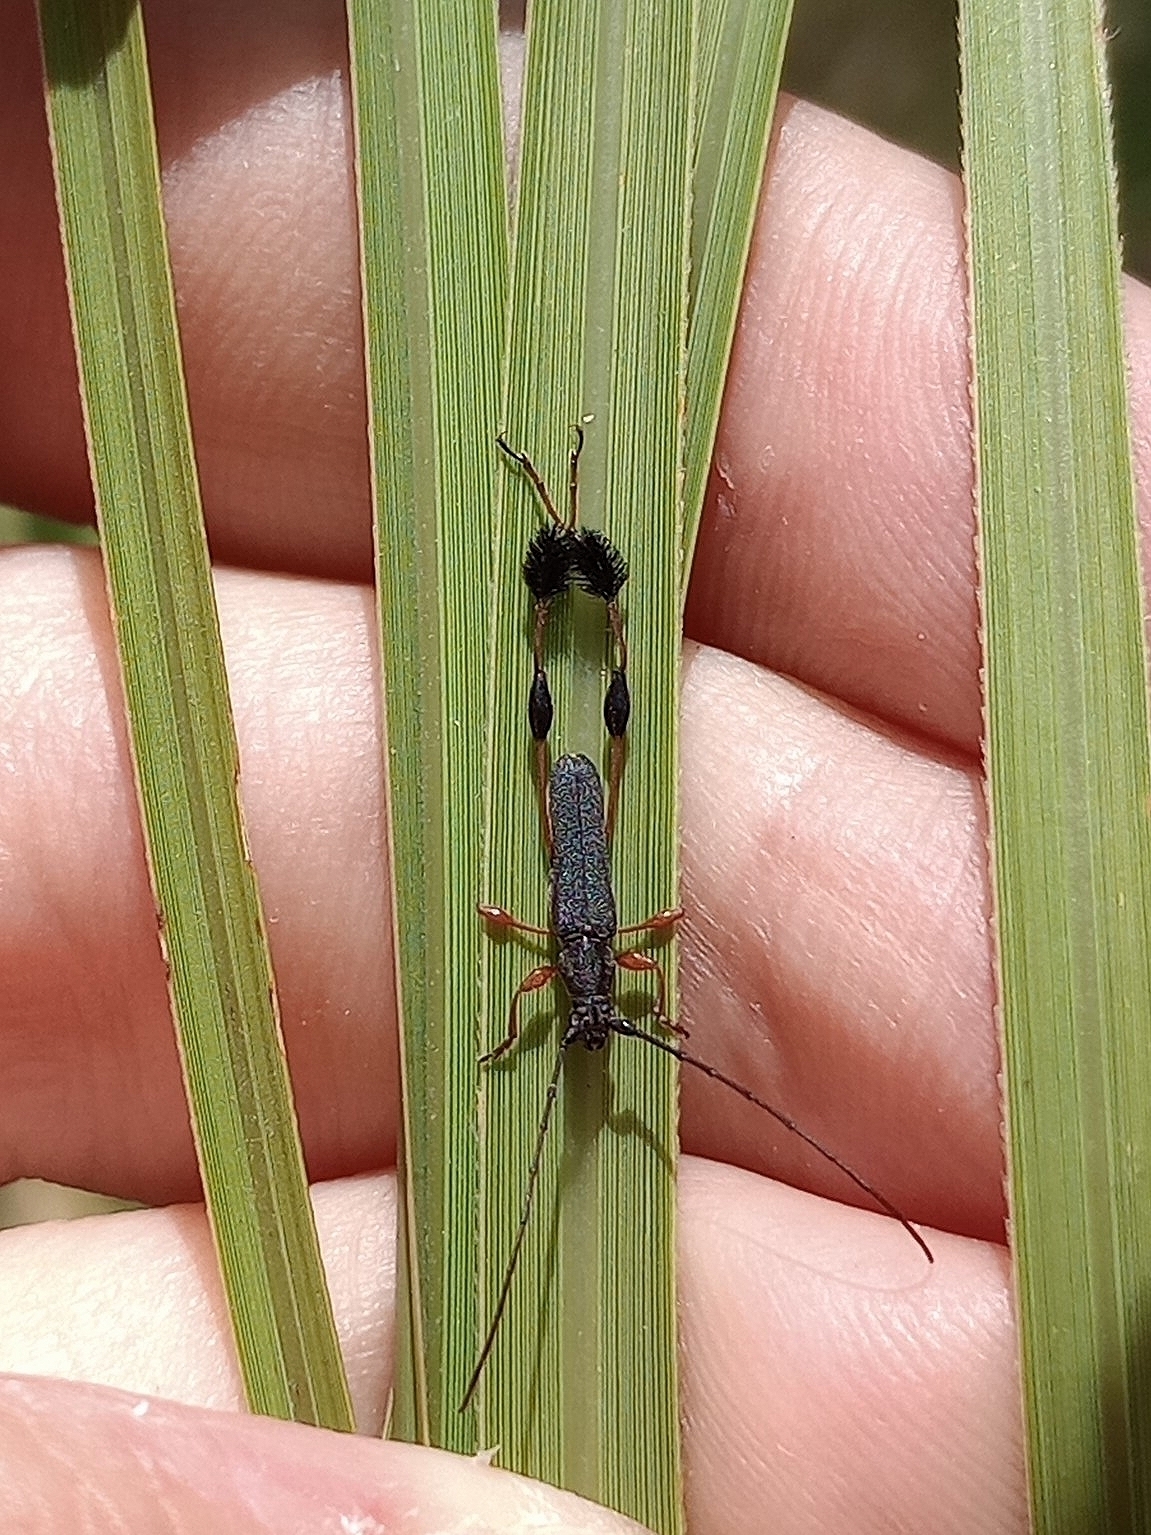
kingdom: Animalia
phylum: Arthropoda
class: Insecta
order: Coleoptera
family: Cerambycidae
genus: Dirocoremia
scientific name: Dirocoremia bruchi
